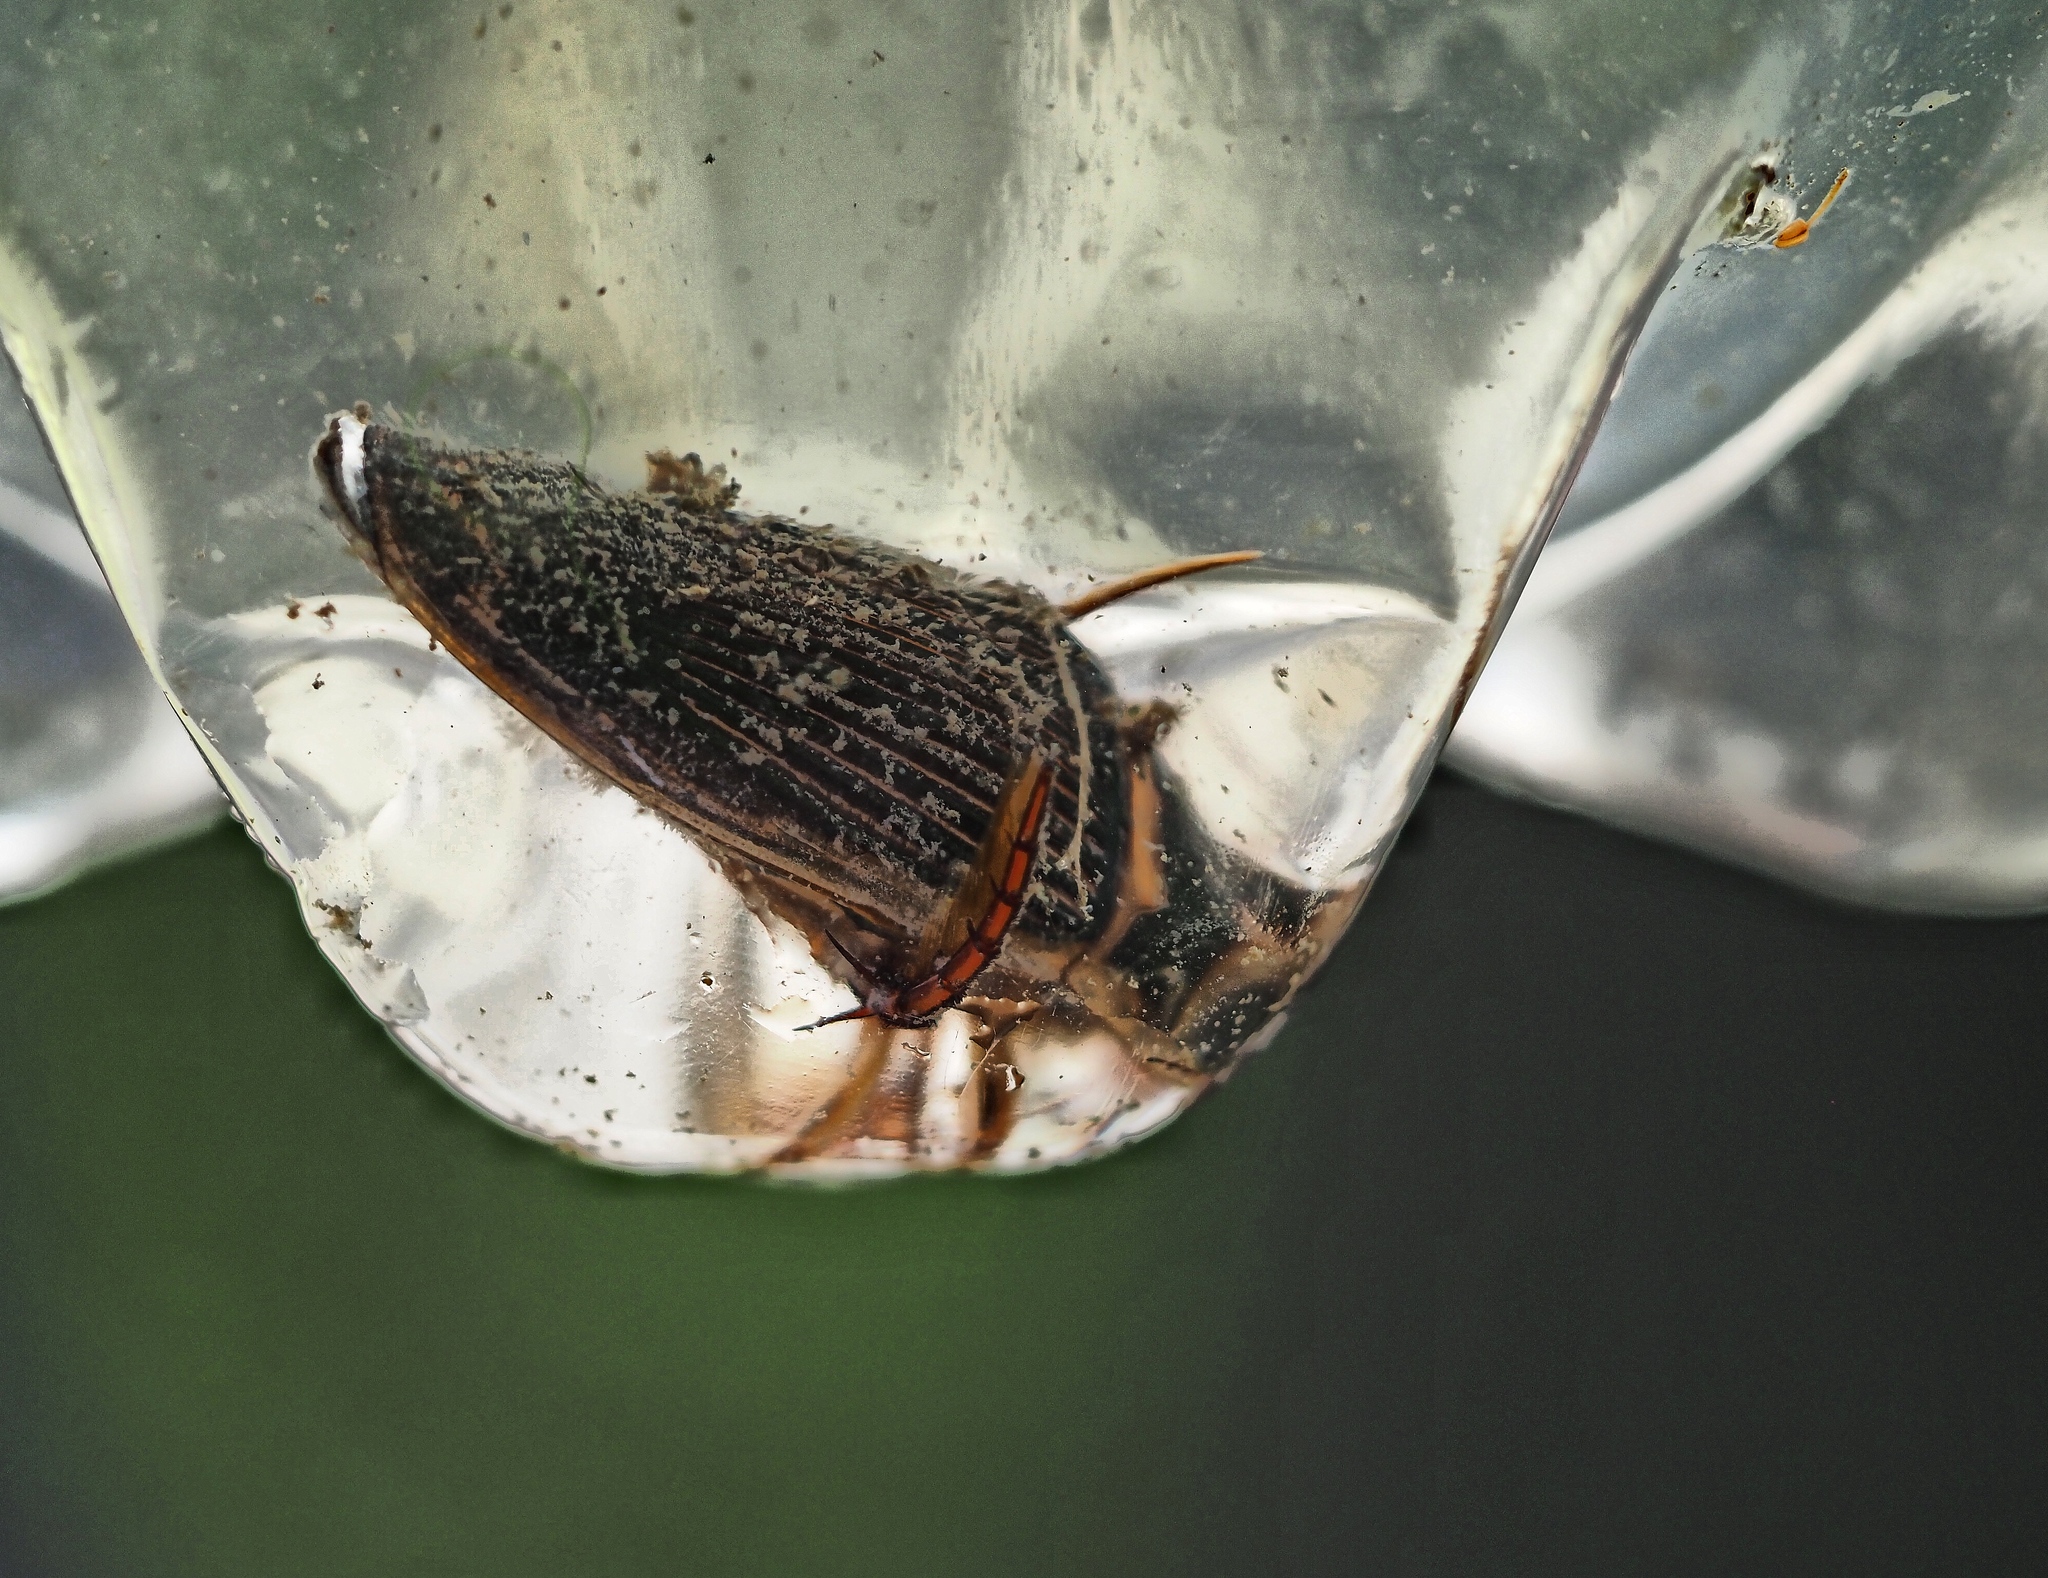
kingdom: Animalia
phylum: Arthropoda
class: Insecta
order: Coleoptera
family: Dytiscidae
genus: Dytiscus
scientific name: Dytiscus
